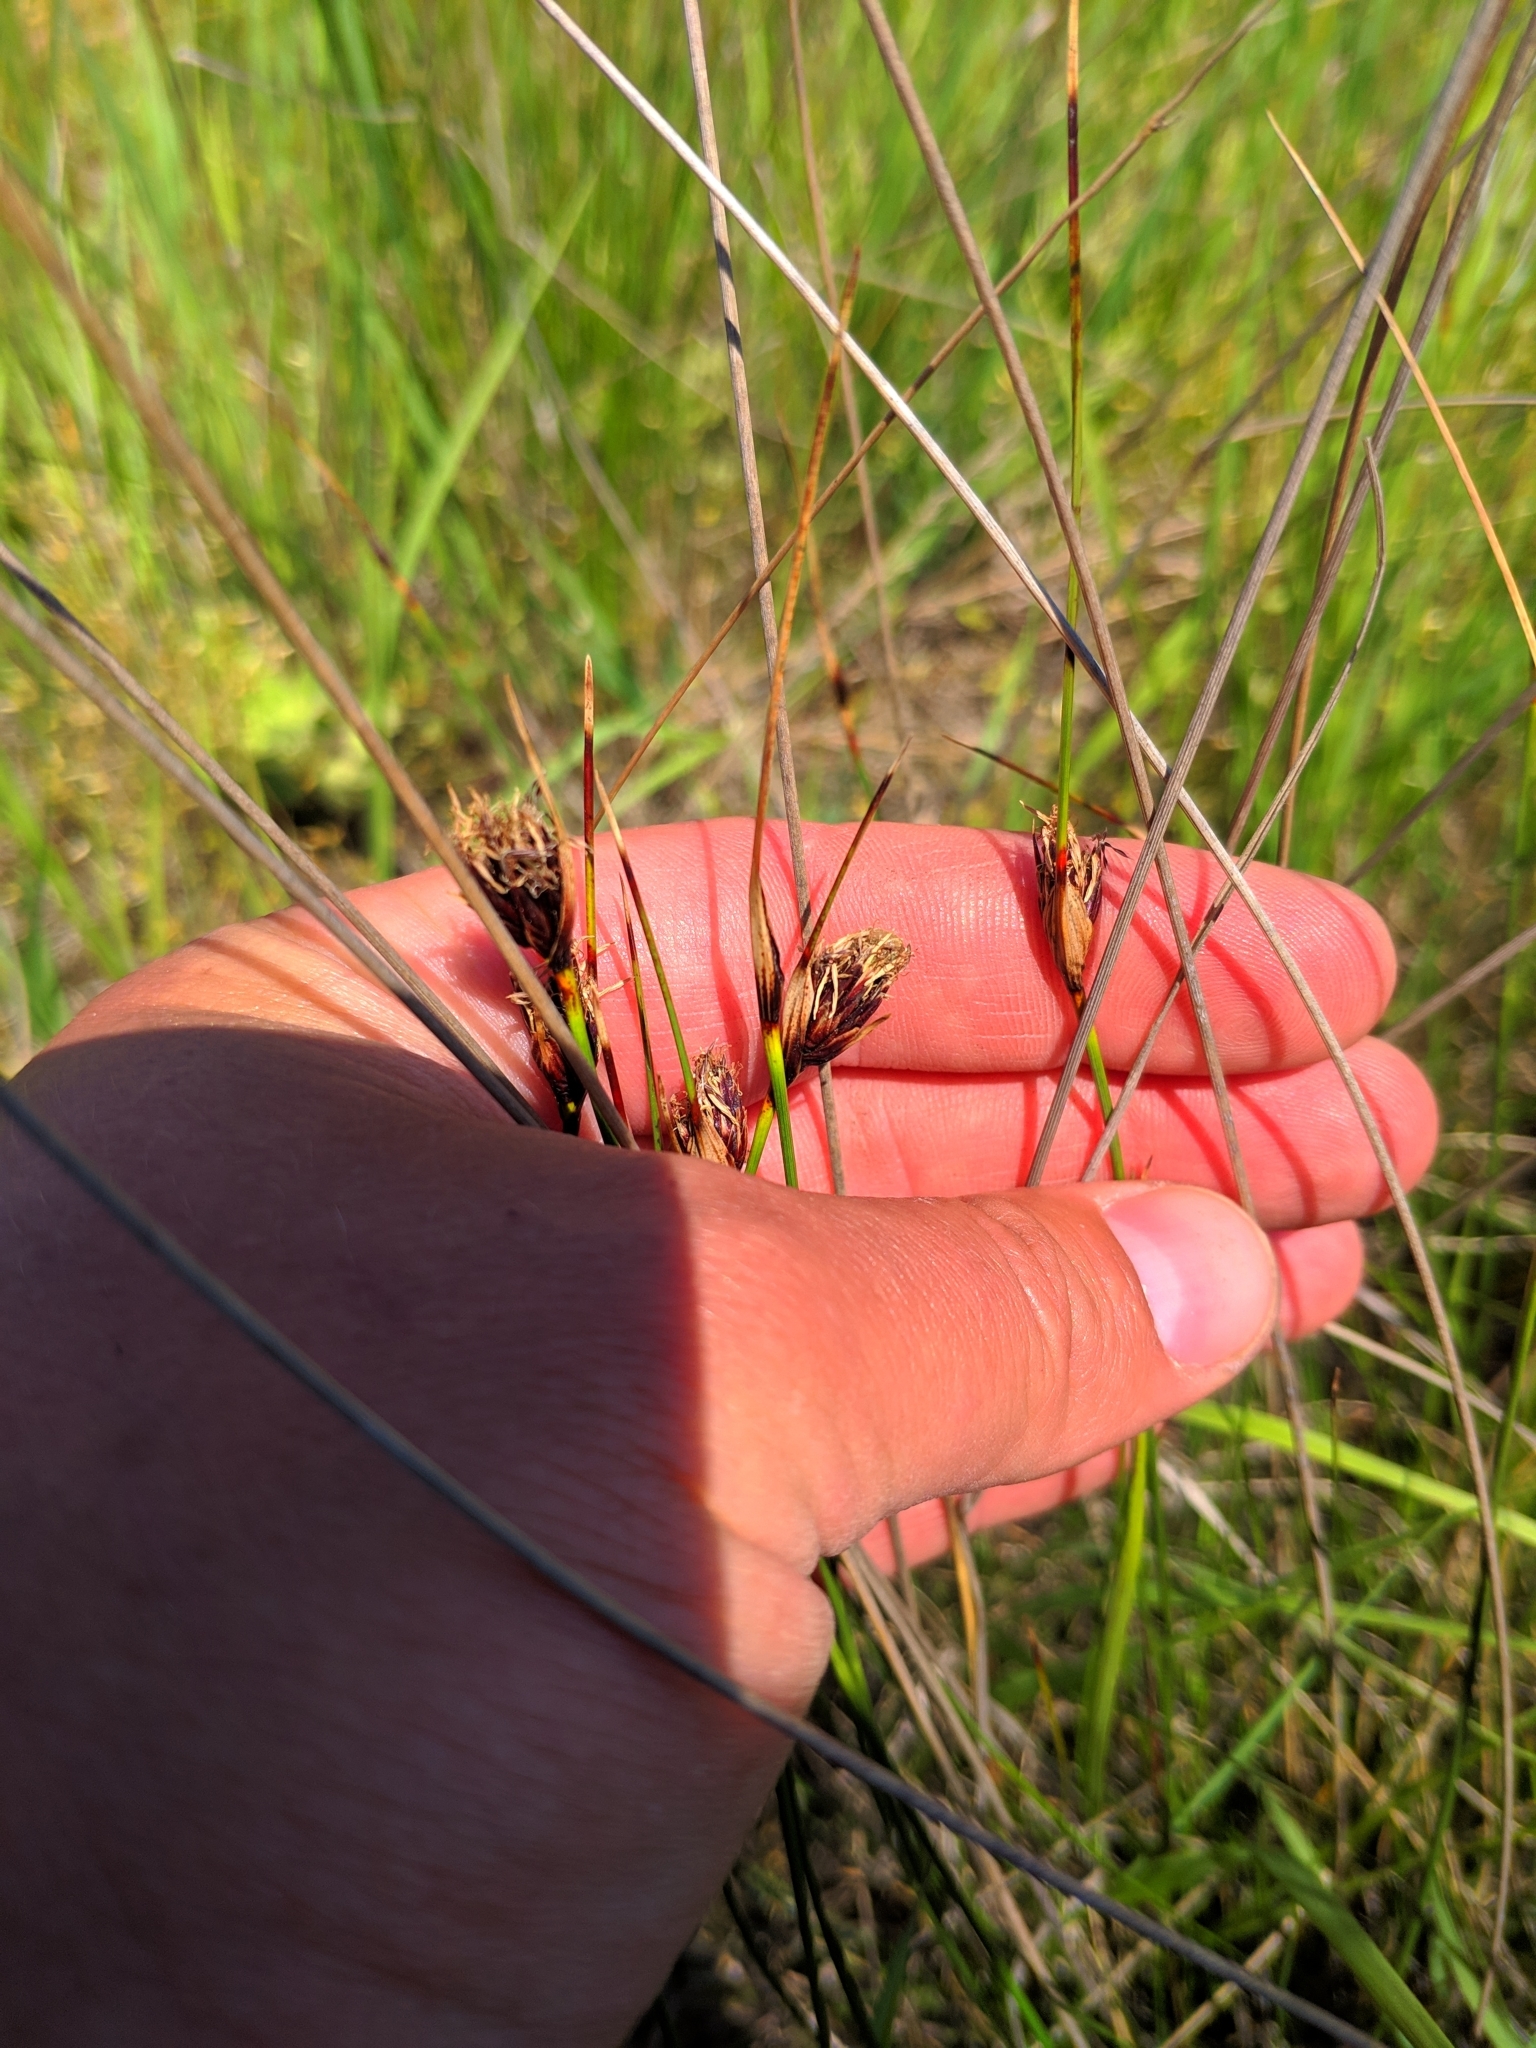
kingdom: Plantae
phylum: Tracheophyta
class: Liliopsida
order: Poales
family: Cyperaceae
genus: Schoenus
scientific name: Schoenus nigricans
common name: Black bog-rush
